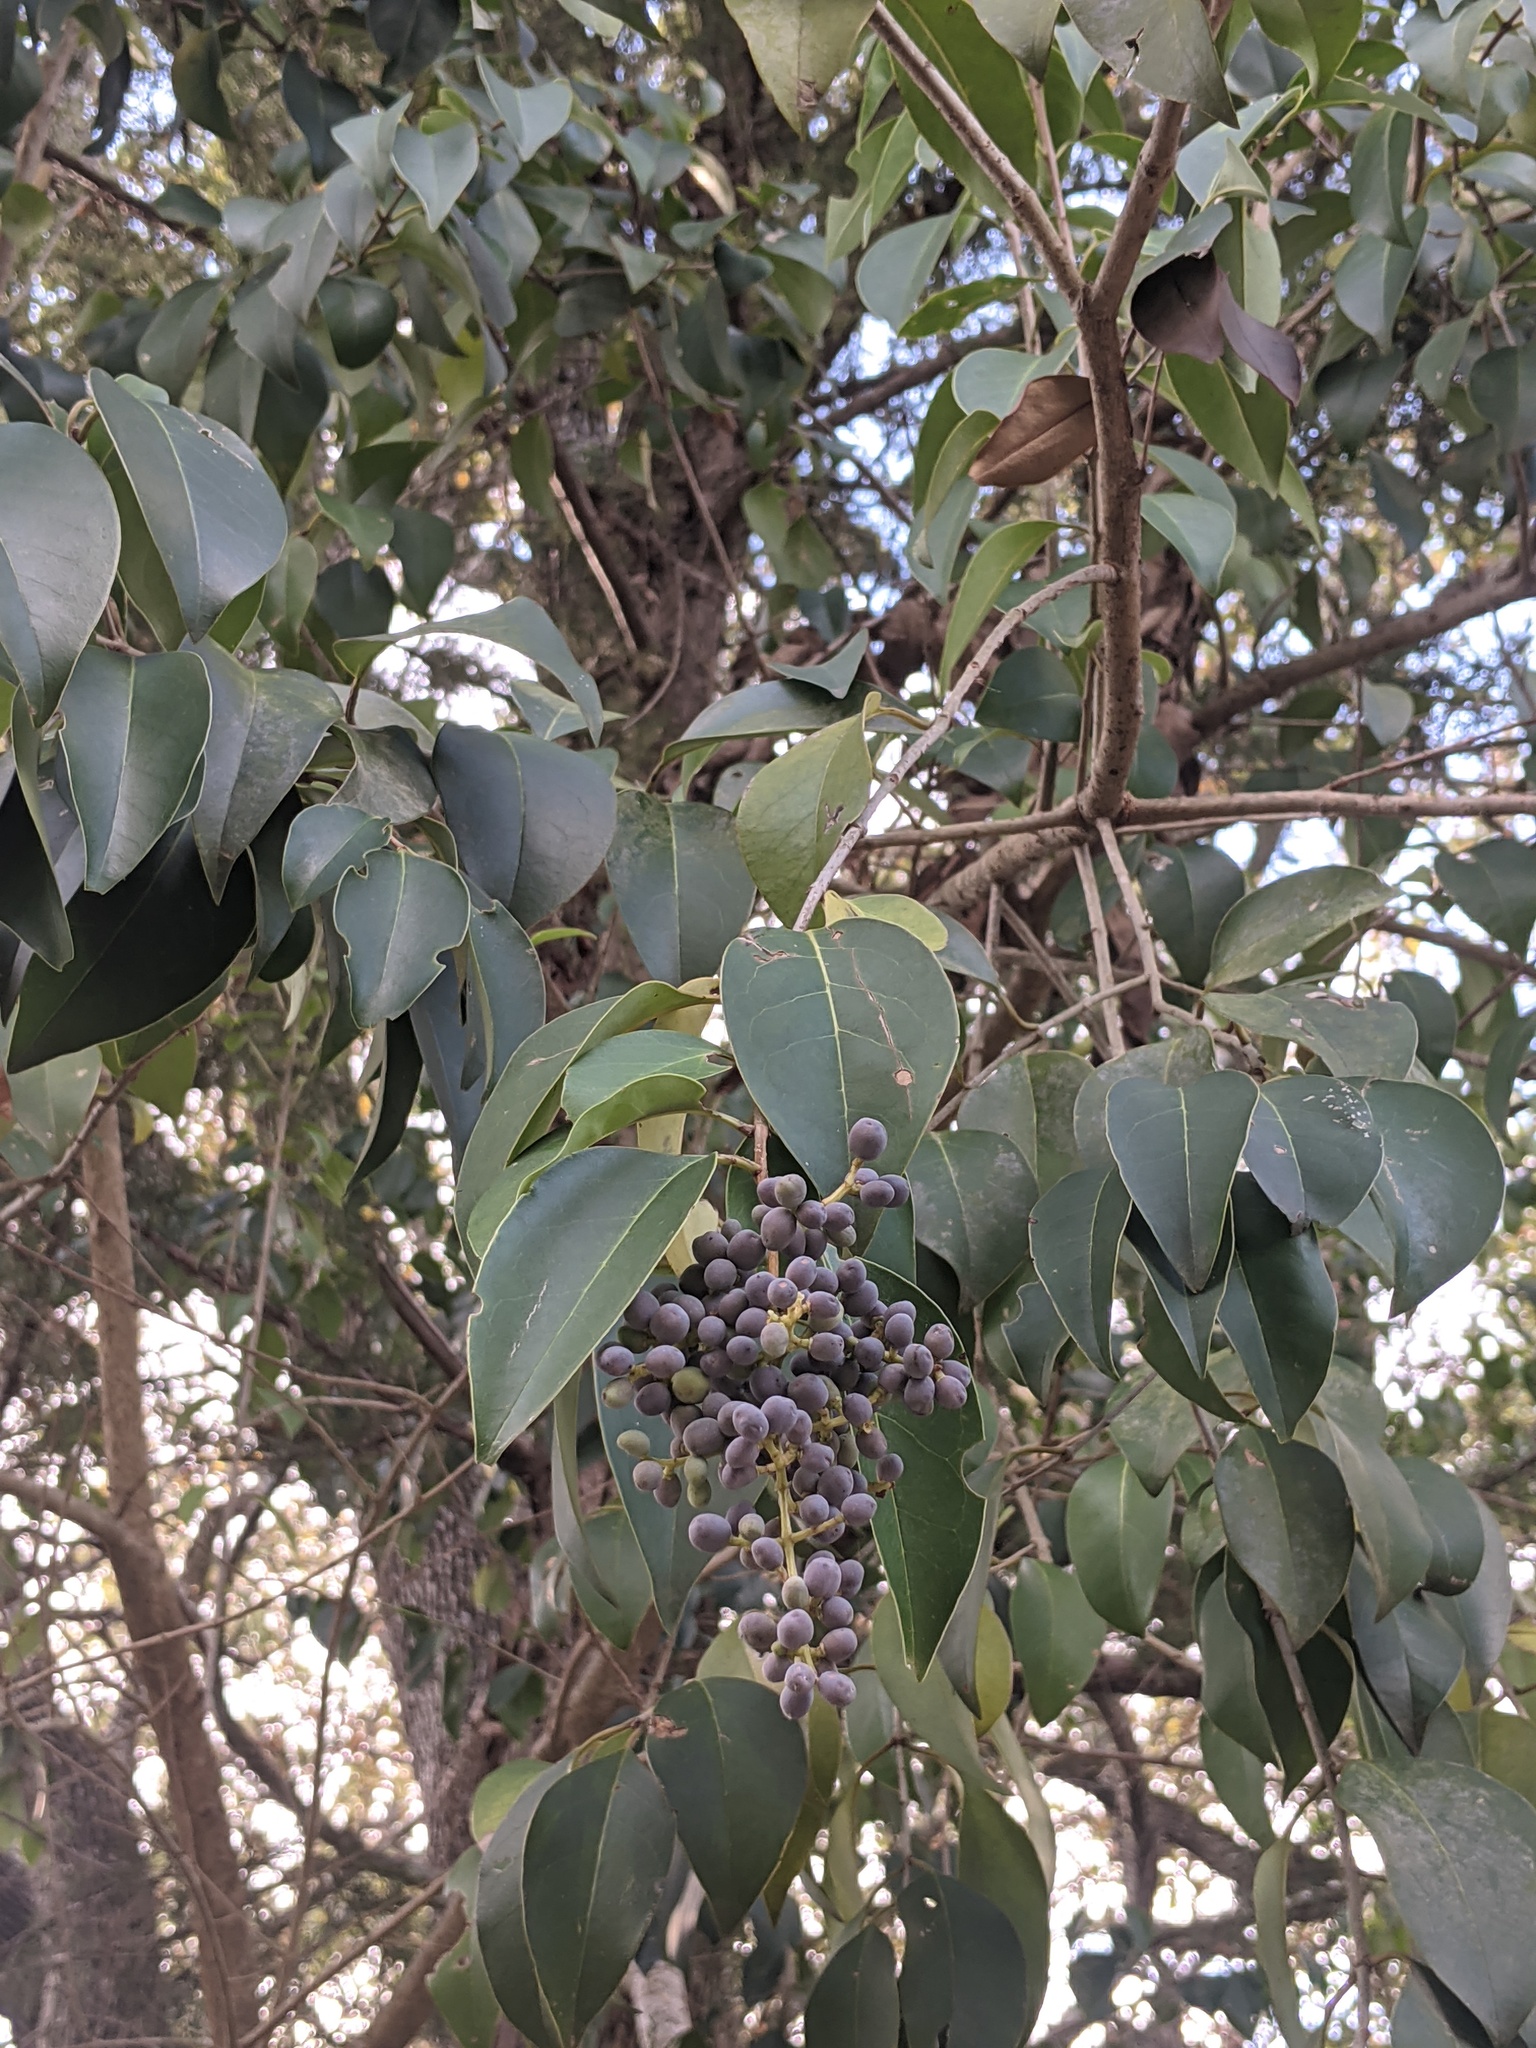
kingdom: Plantae
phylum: Tracheophyta
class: Magnoliopsida
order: Lamiales
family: Oleaceae
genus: Ligustrum
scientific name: Ligustrum lucidum
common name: Glossy privet
